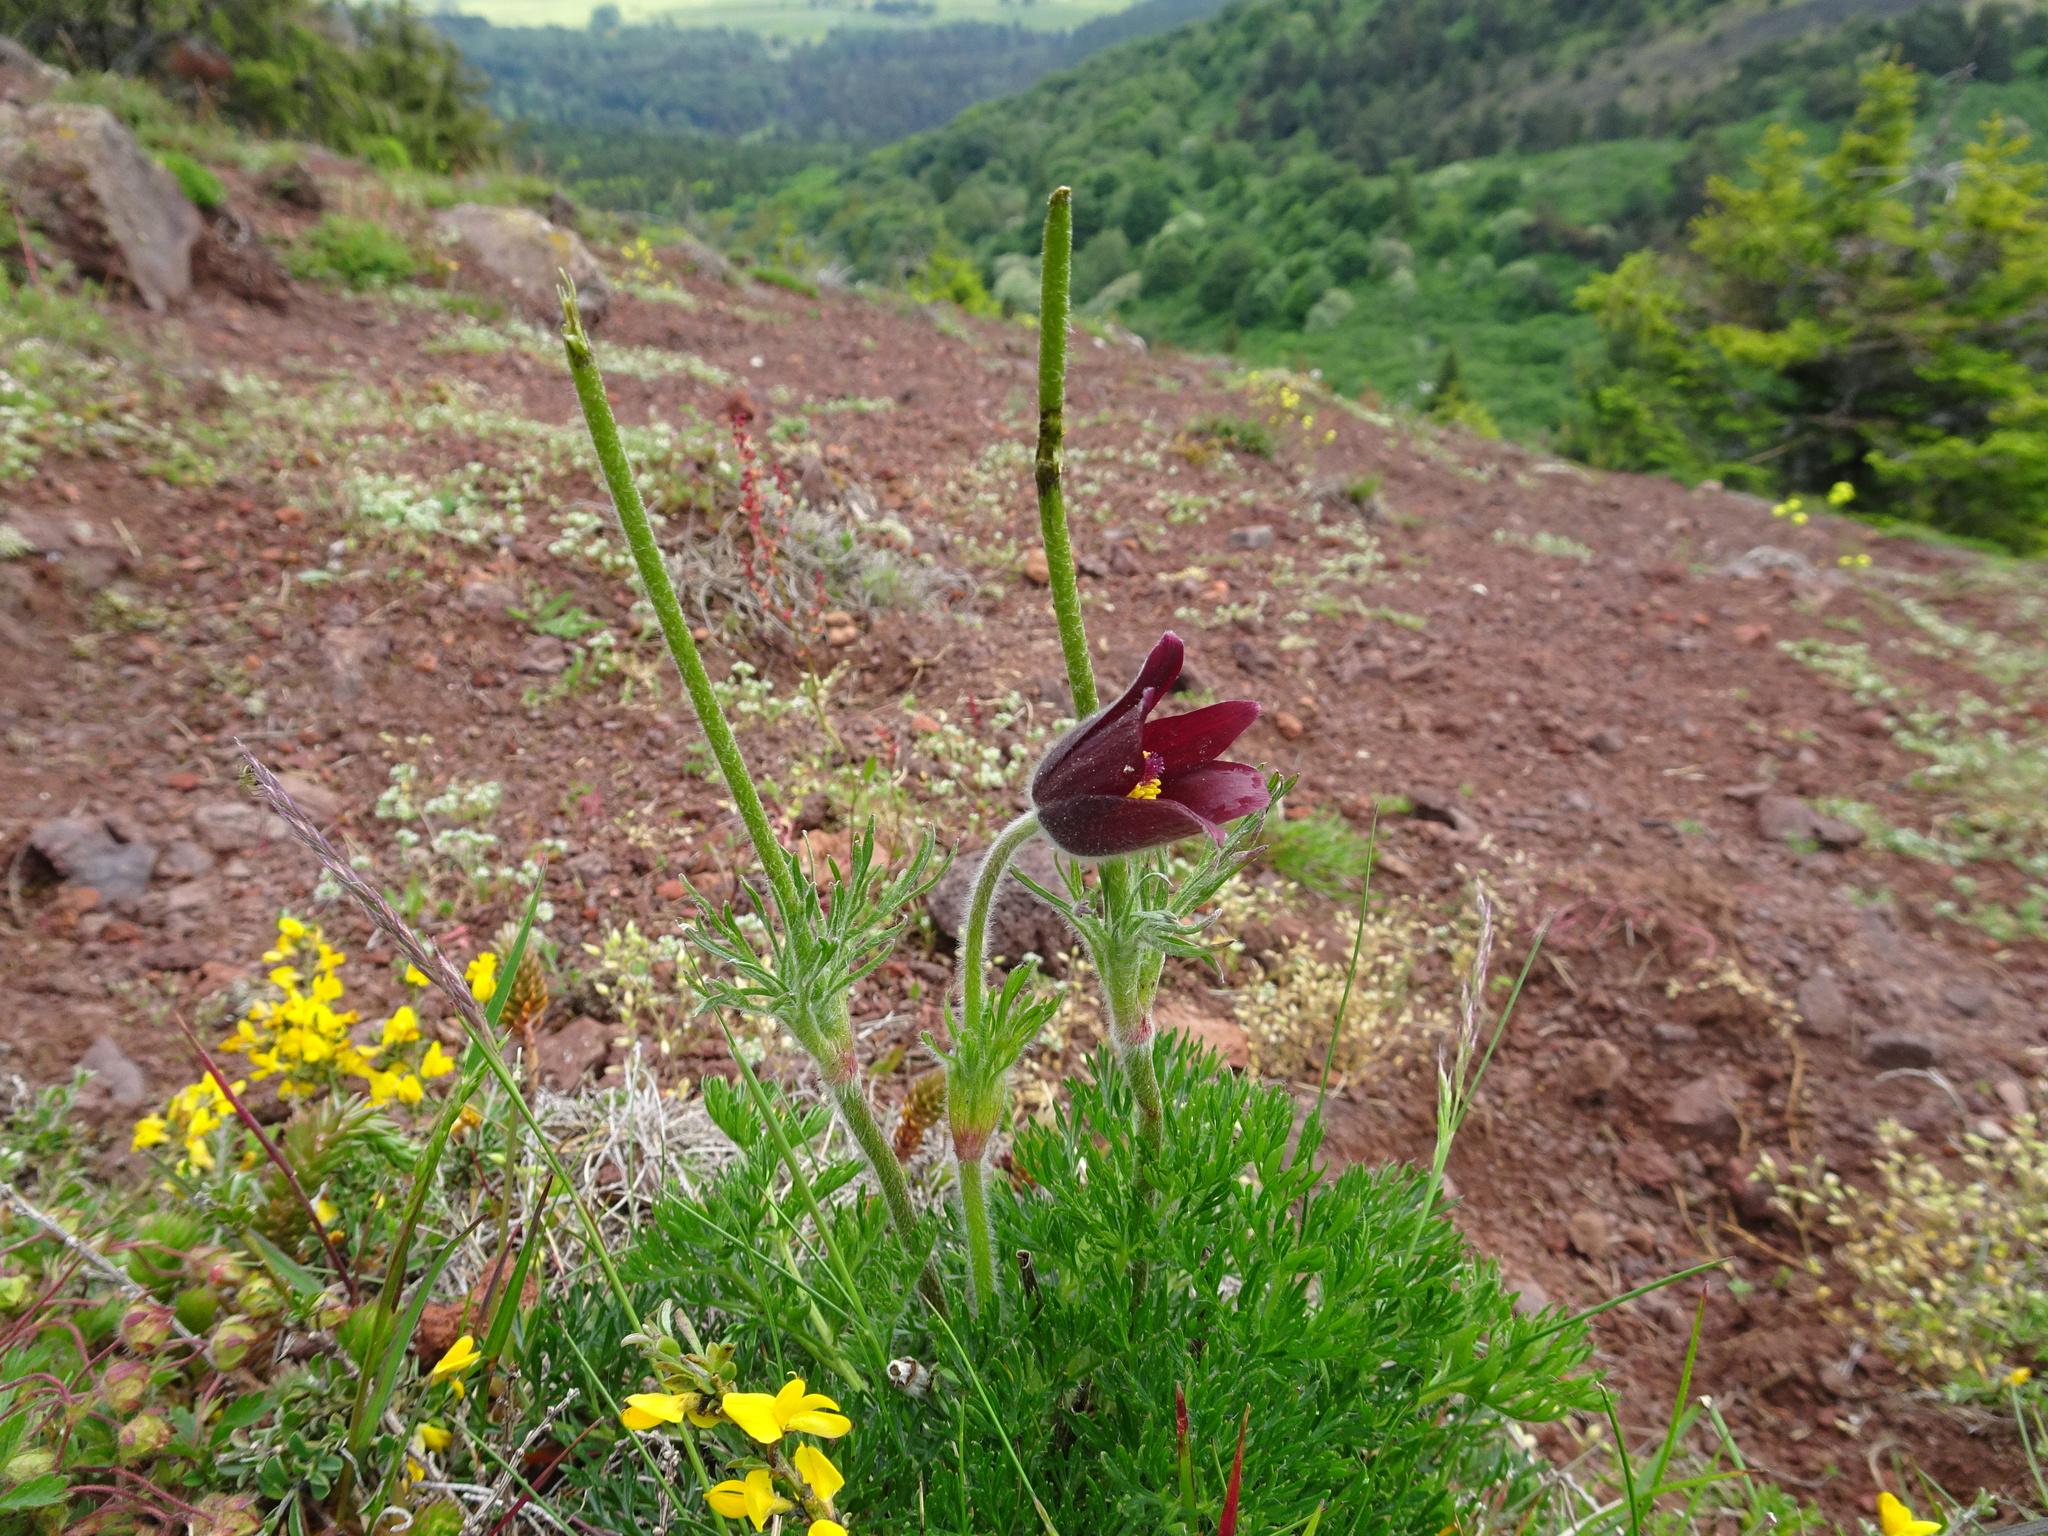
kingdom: Plantae
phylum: Tracheophyta
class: Magnoliopsida
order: Ranunculales
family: Ranunculaceae
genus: Pulsatilla
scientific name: Pulsatilla rubra
